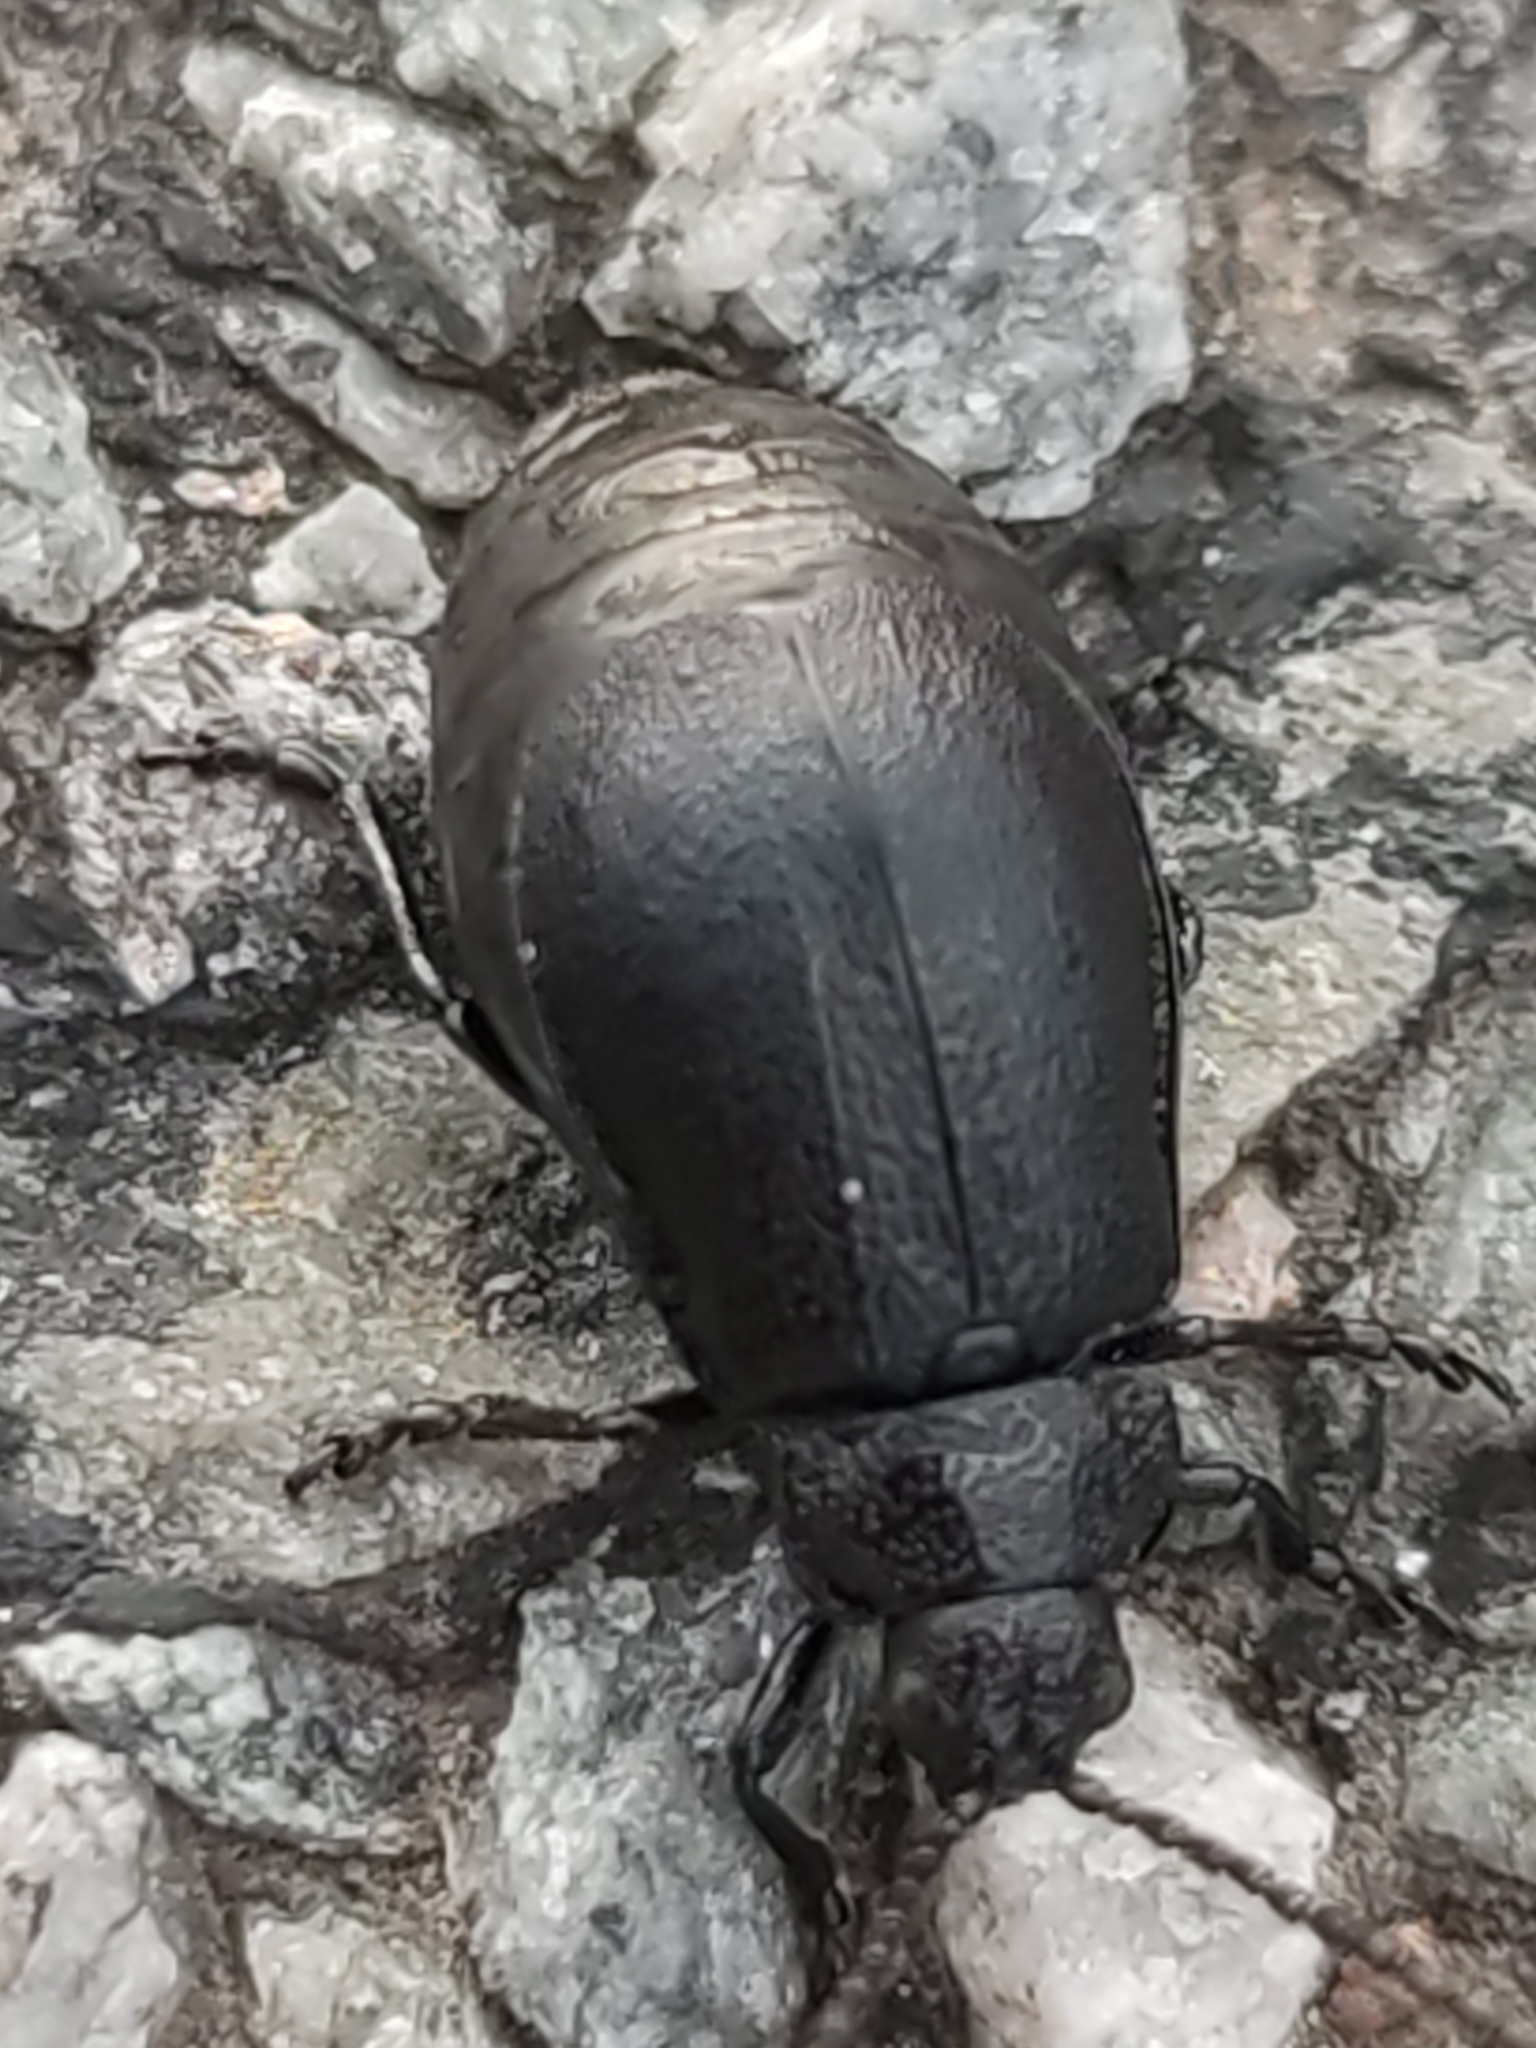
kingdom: Animalia
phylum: Arthropoda
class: Insecta
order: Coleoptera
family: Chrysomelidae
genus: Galeruca
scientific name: Galeruca tanaceti
